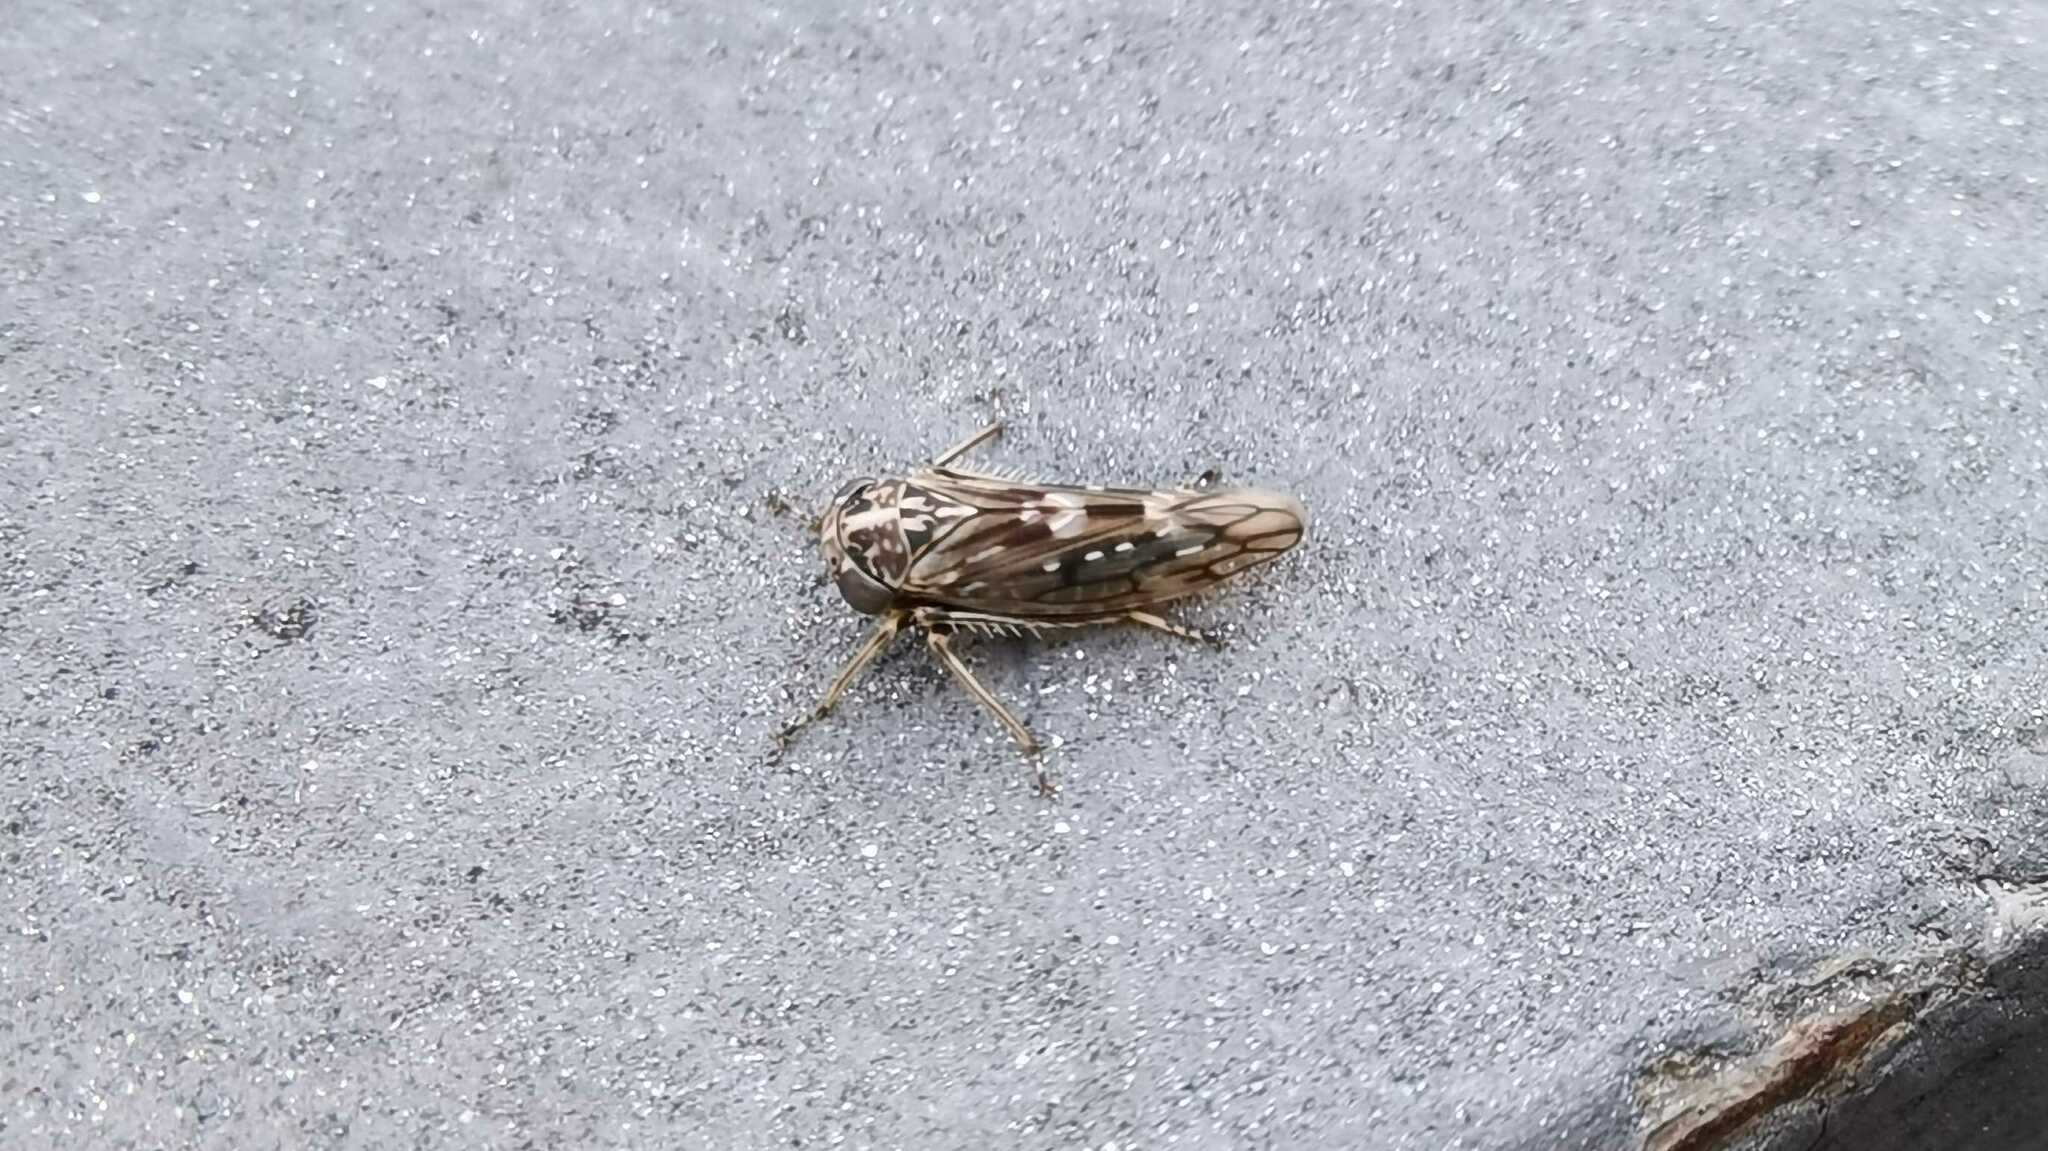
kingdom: Animalia
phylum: Arthropoda
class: Insecta
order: Hemiptera
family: Cicadellidae
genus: Idiocerus
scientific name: Idiocerus herrichii
